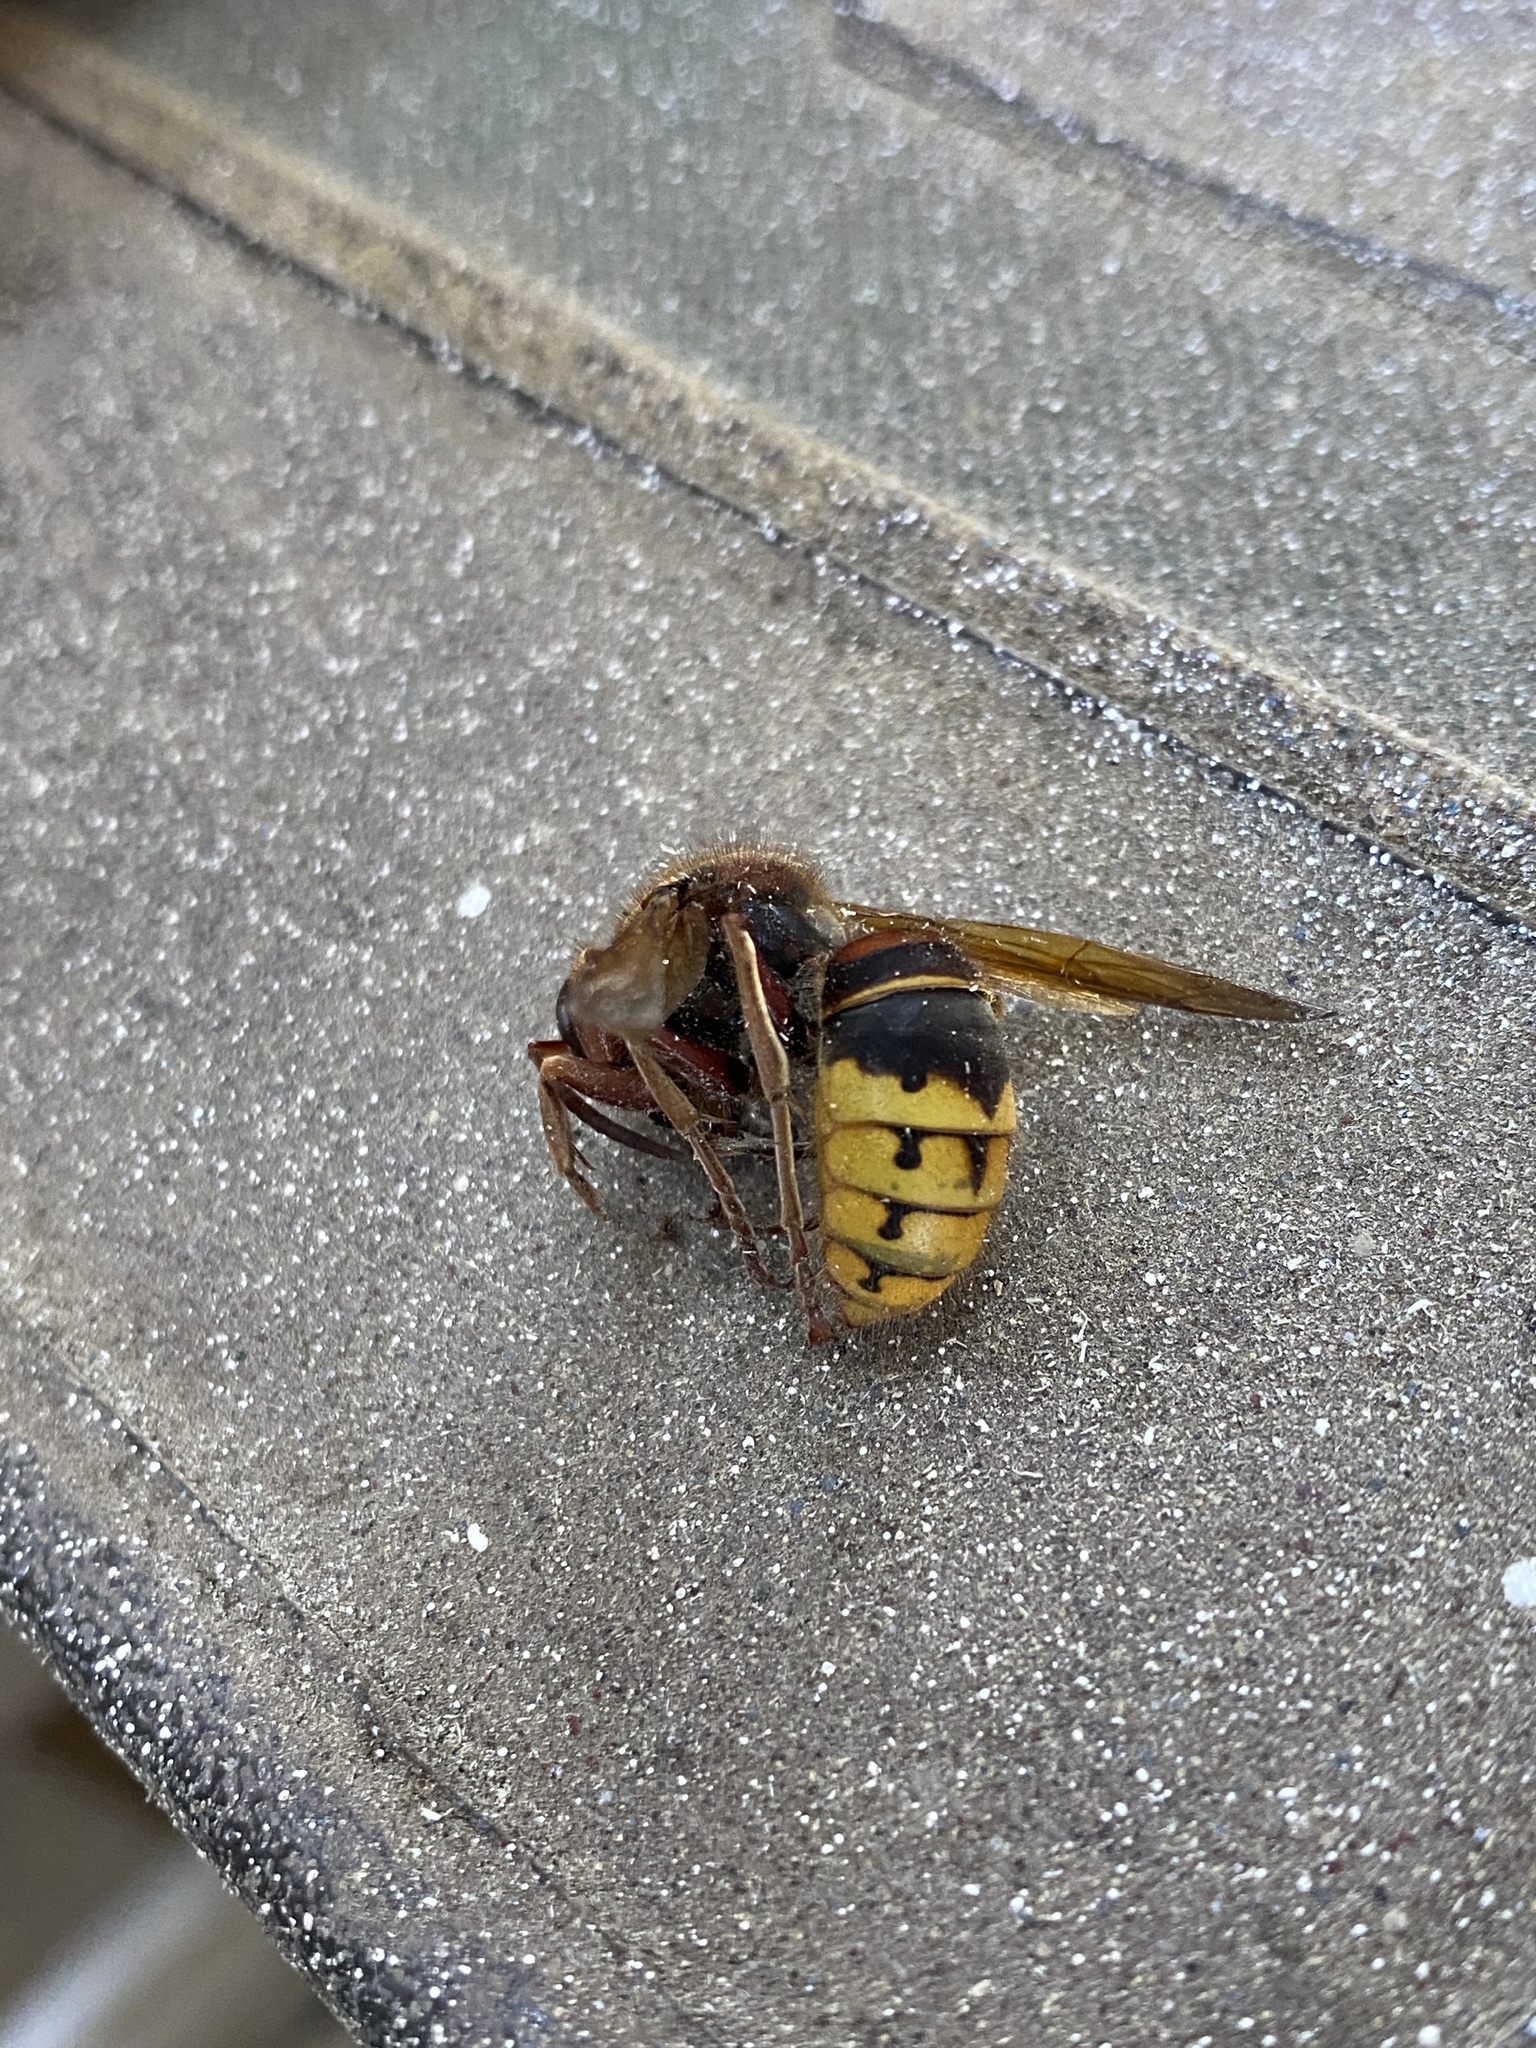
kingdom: Animalia
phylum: Arthropoda
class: Insecta
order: Hymenoptera
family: Vespidae
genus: Vespa
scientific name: Vespa crabro
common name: Hornet
